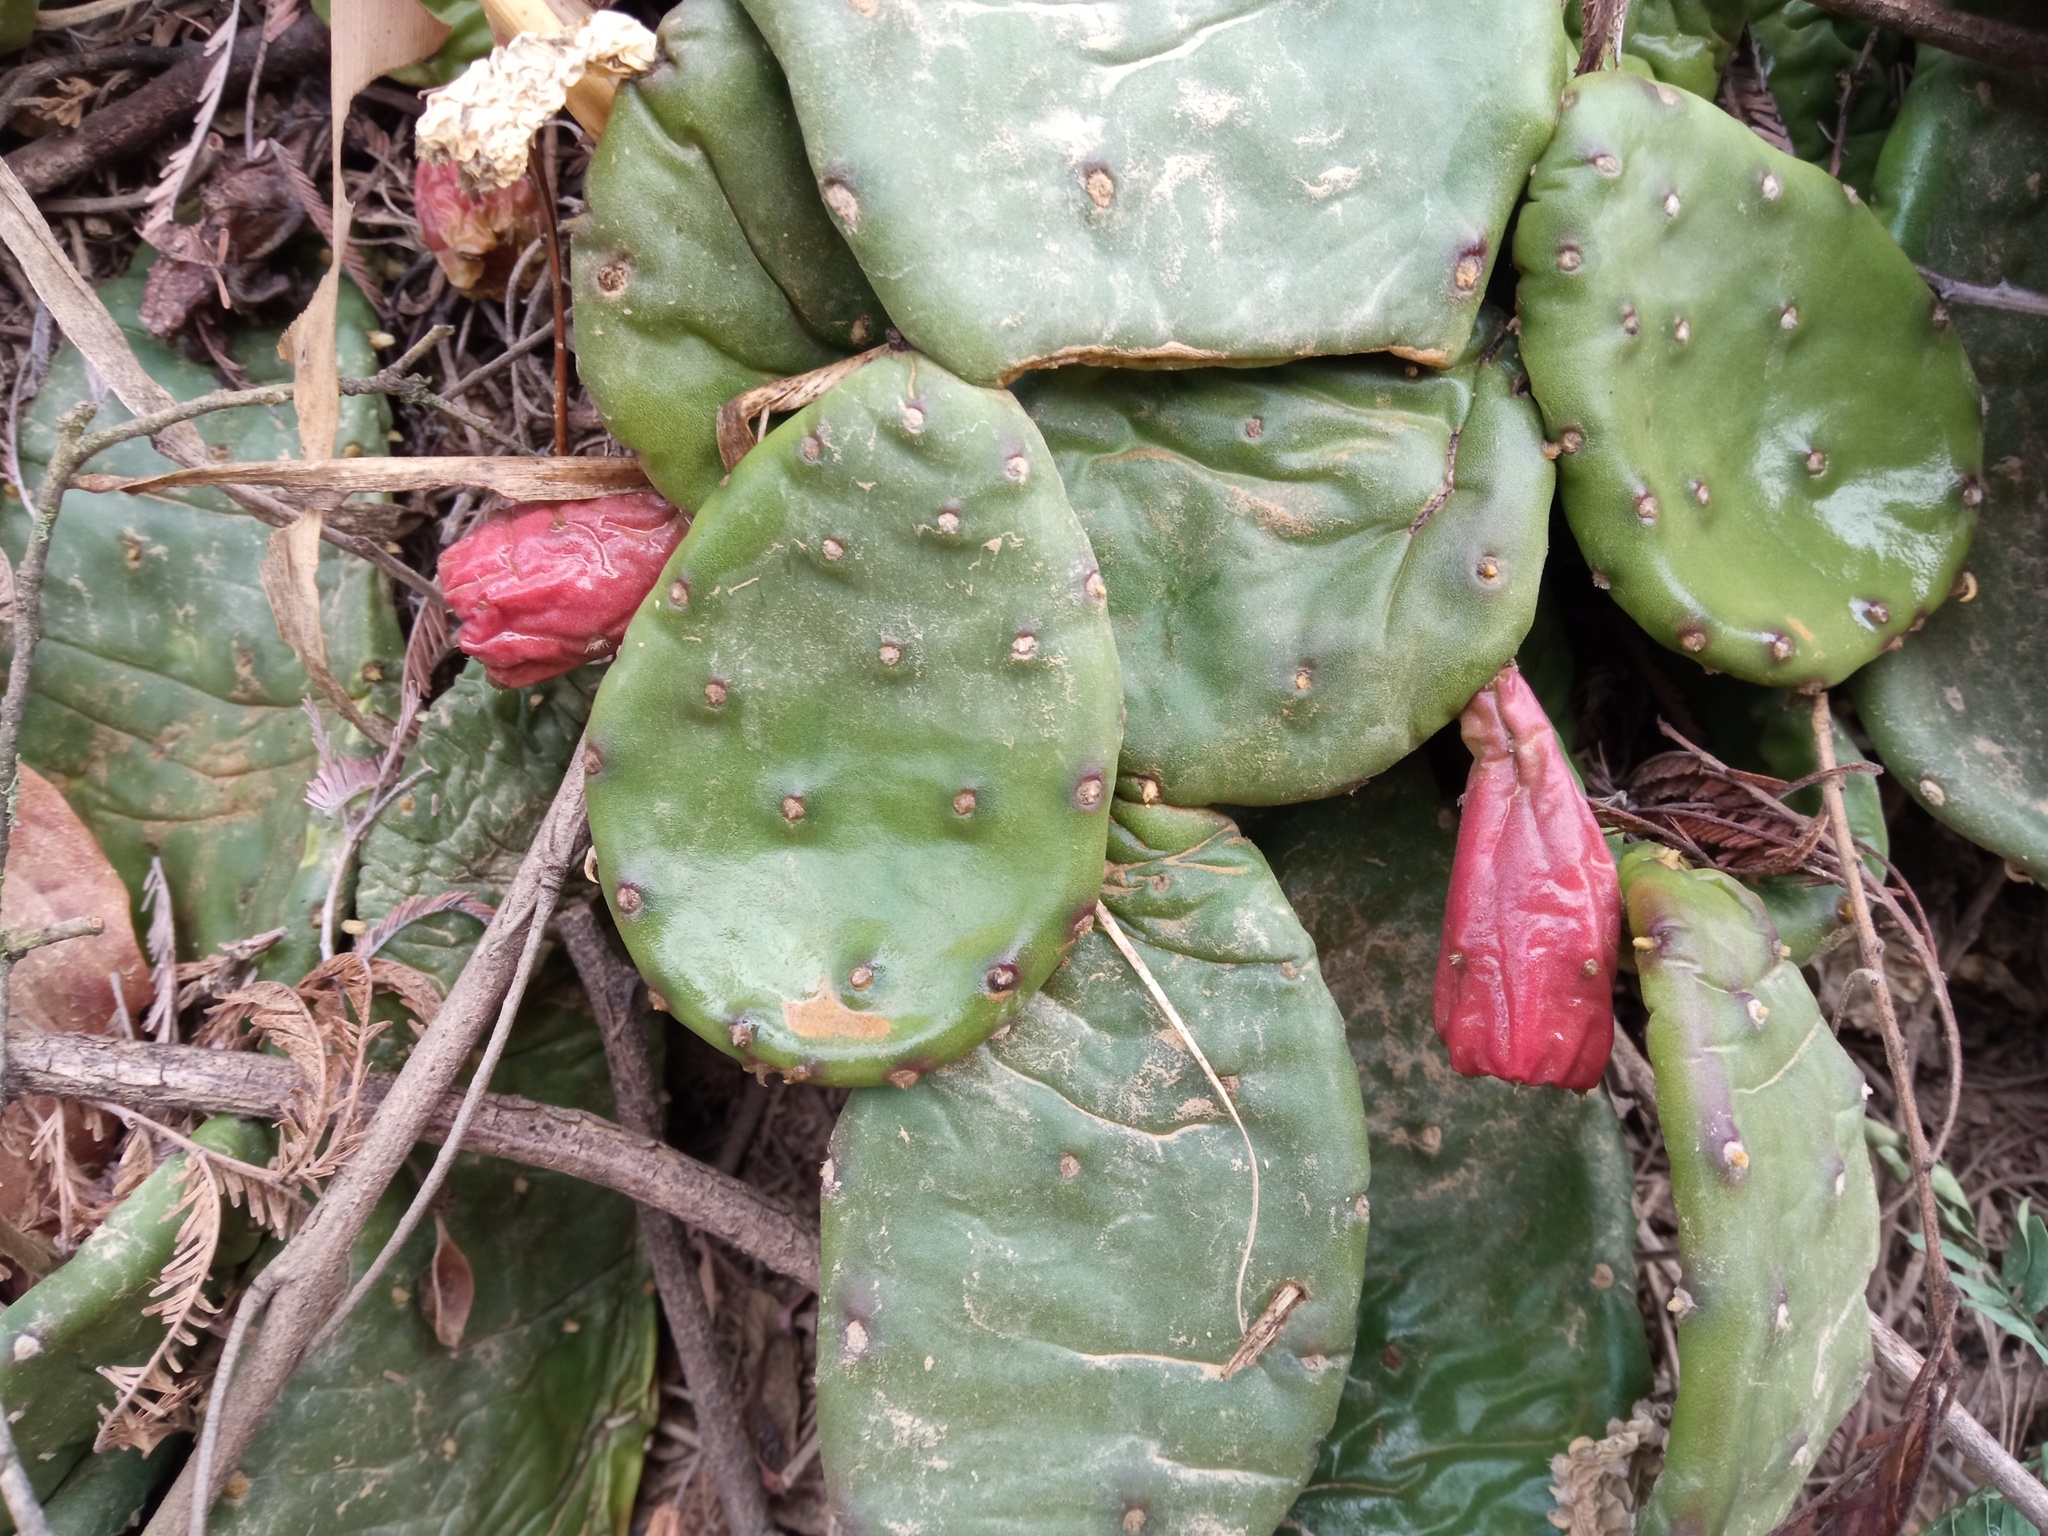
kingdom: Plantae
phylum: Tracheophyta
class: Magnoliopsida
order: Caryophyllales
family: Cactaceae
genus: Opuntia
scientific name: Opuntia humifusa
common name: Eastern prickly-pear
